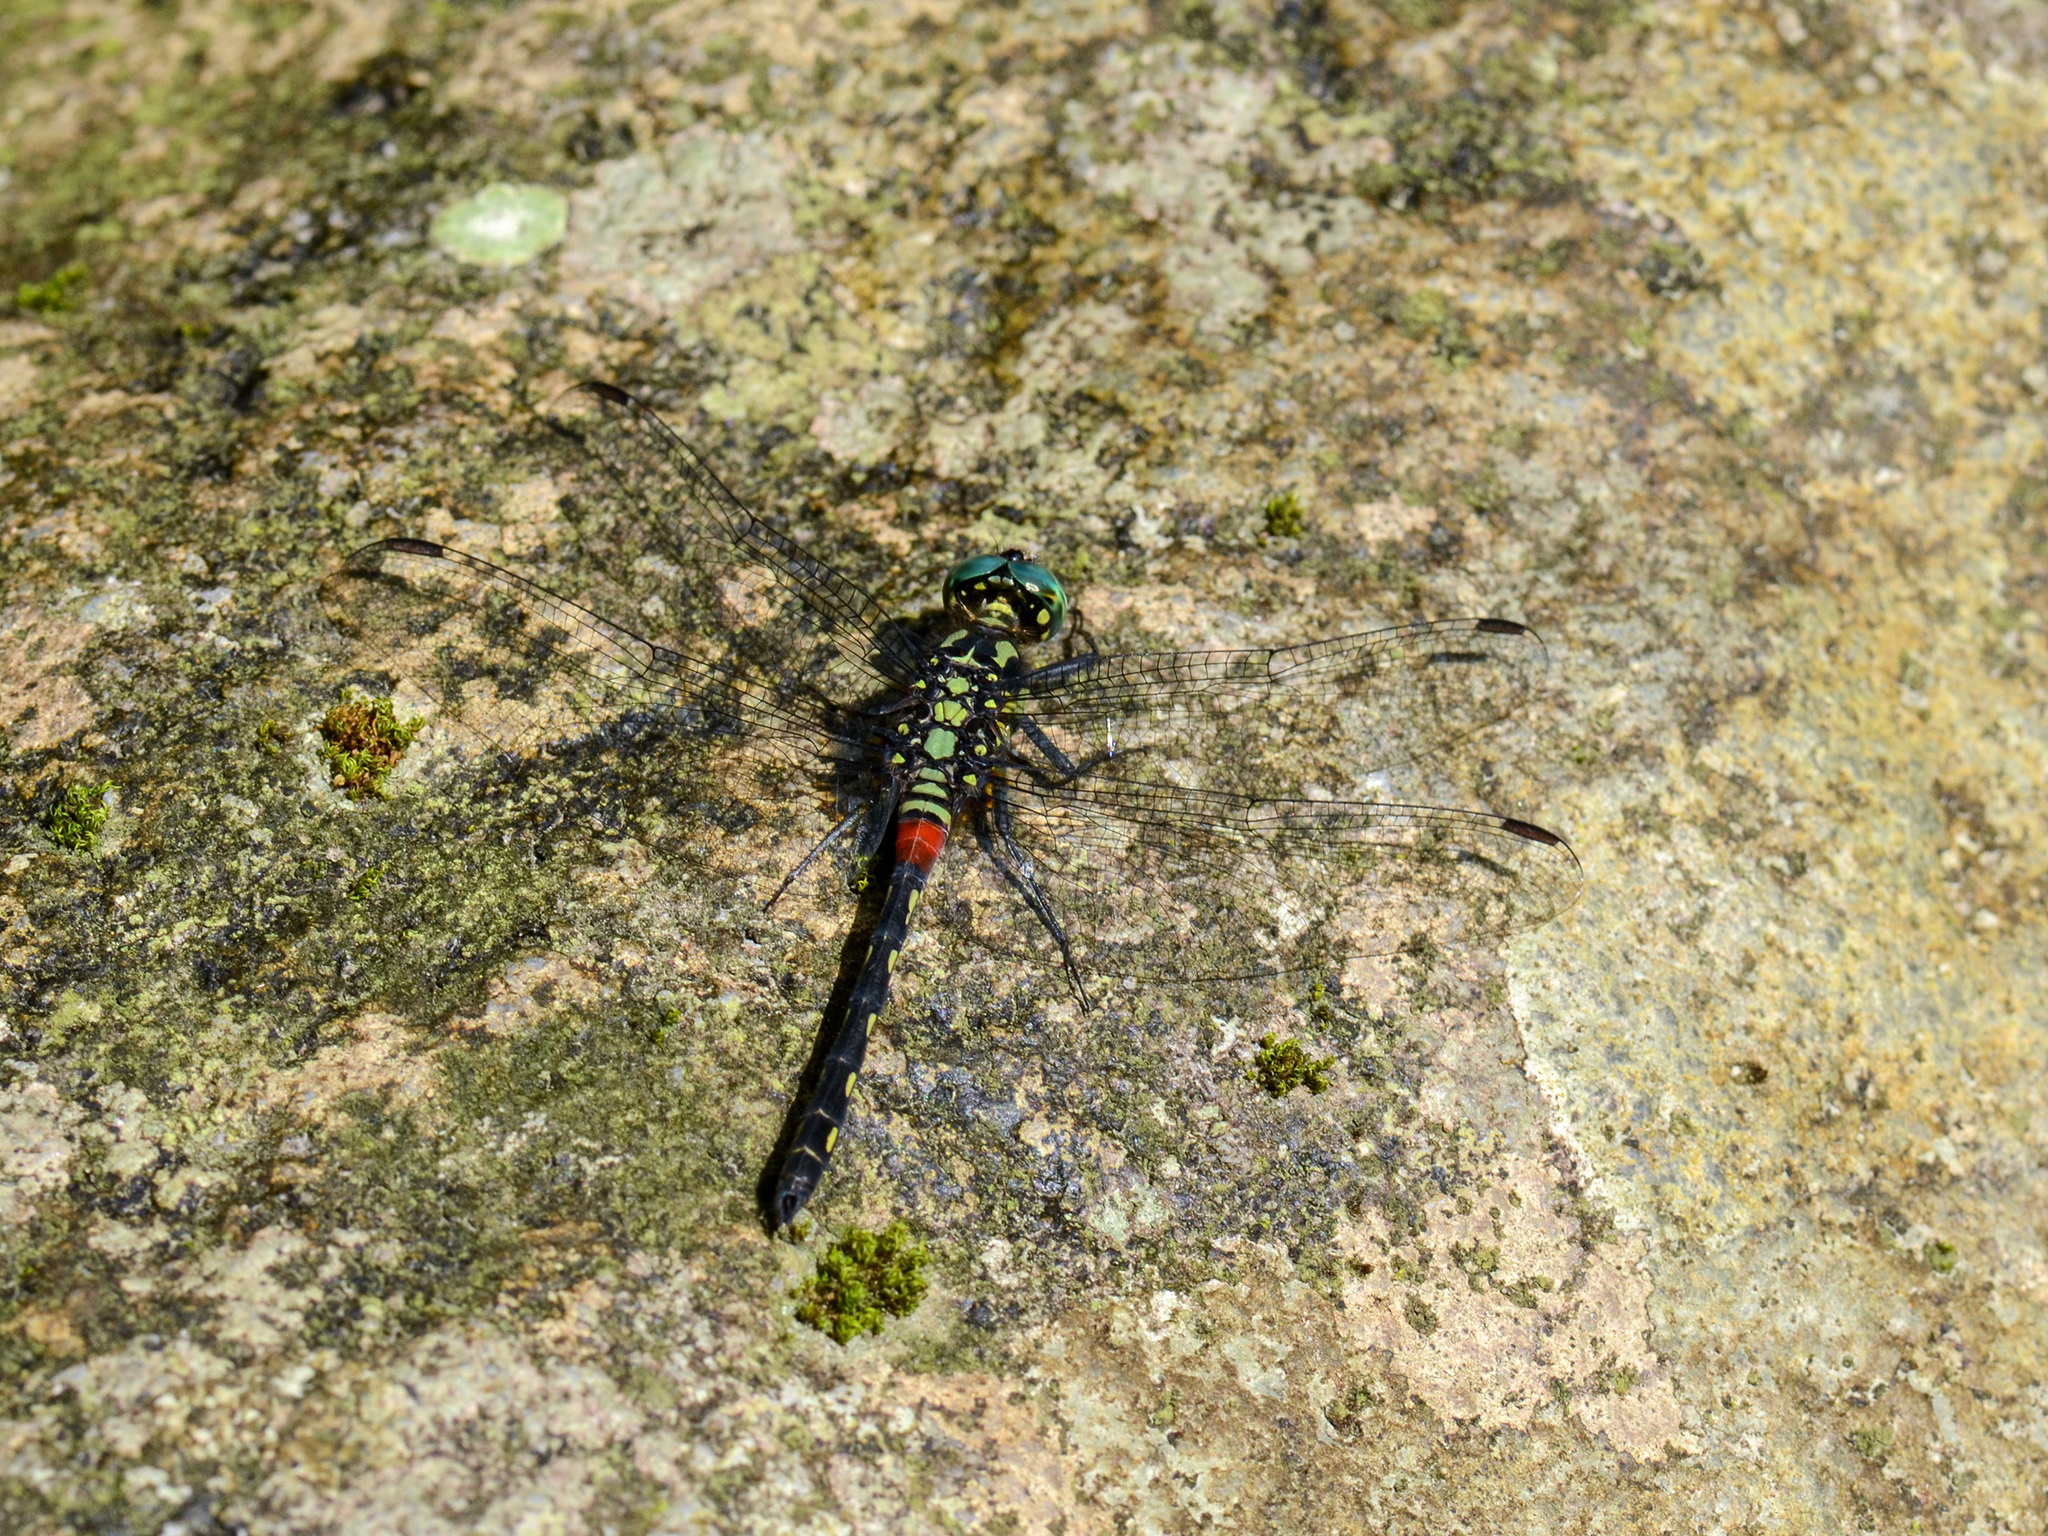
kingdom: Animalia
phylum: Arthropoda
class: Insecta
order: Odonata
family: Libellulidae
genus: Diplacina
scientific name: Diplacina bolivari
